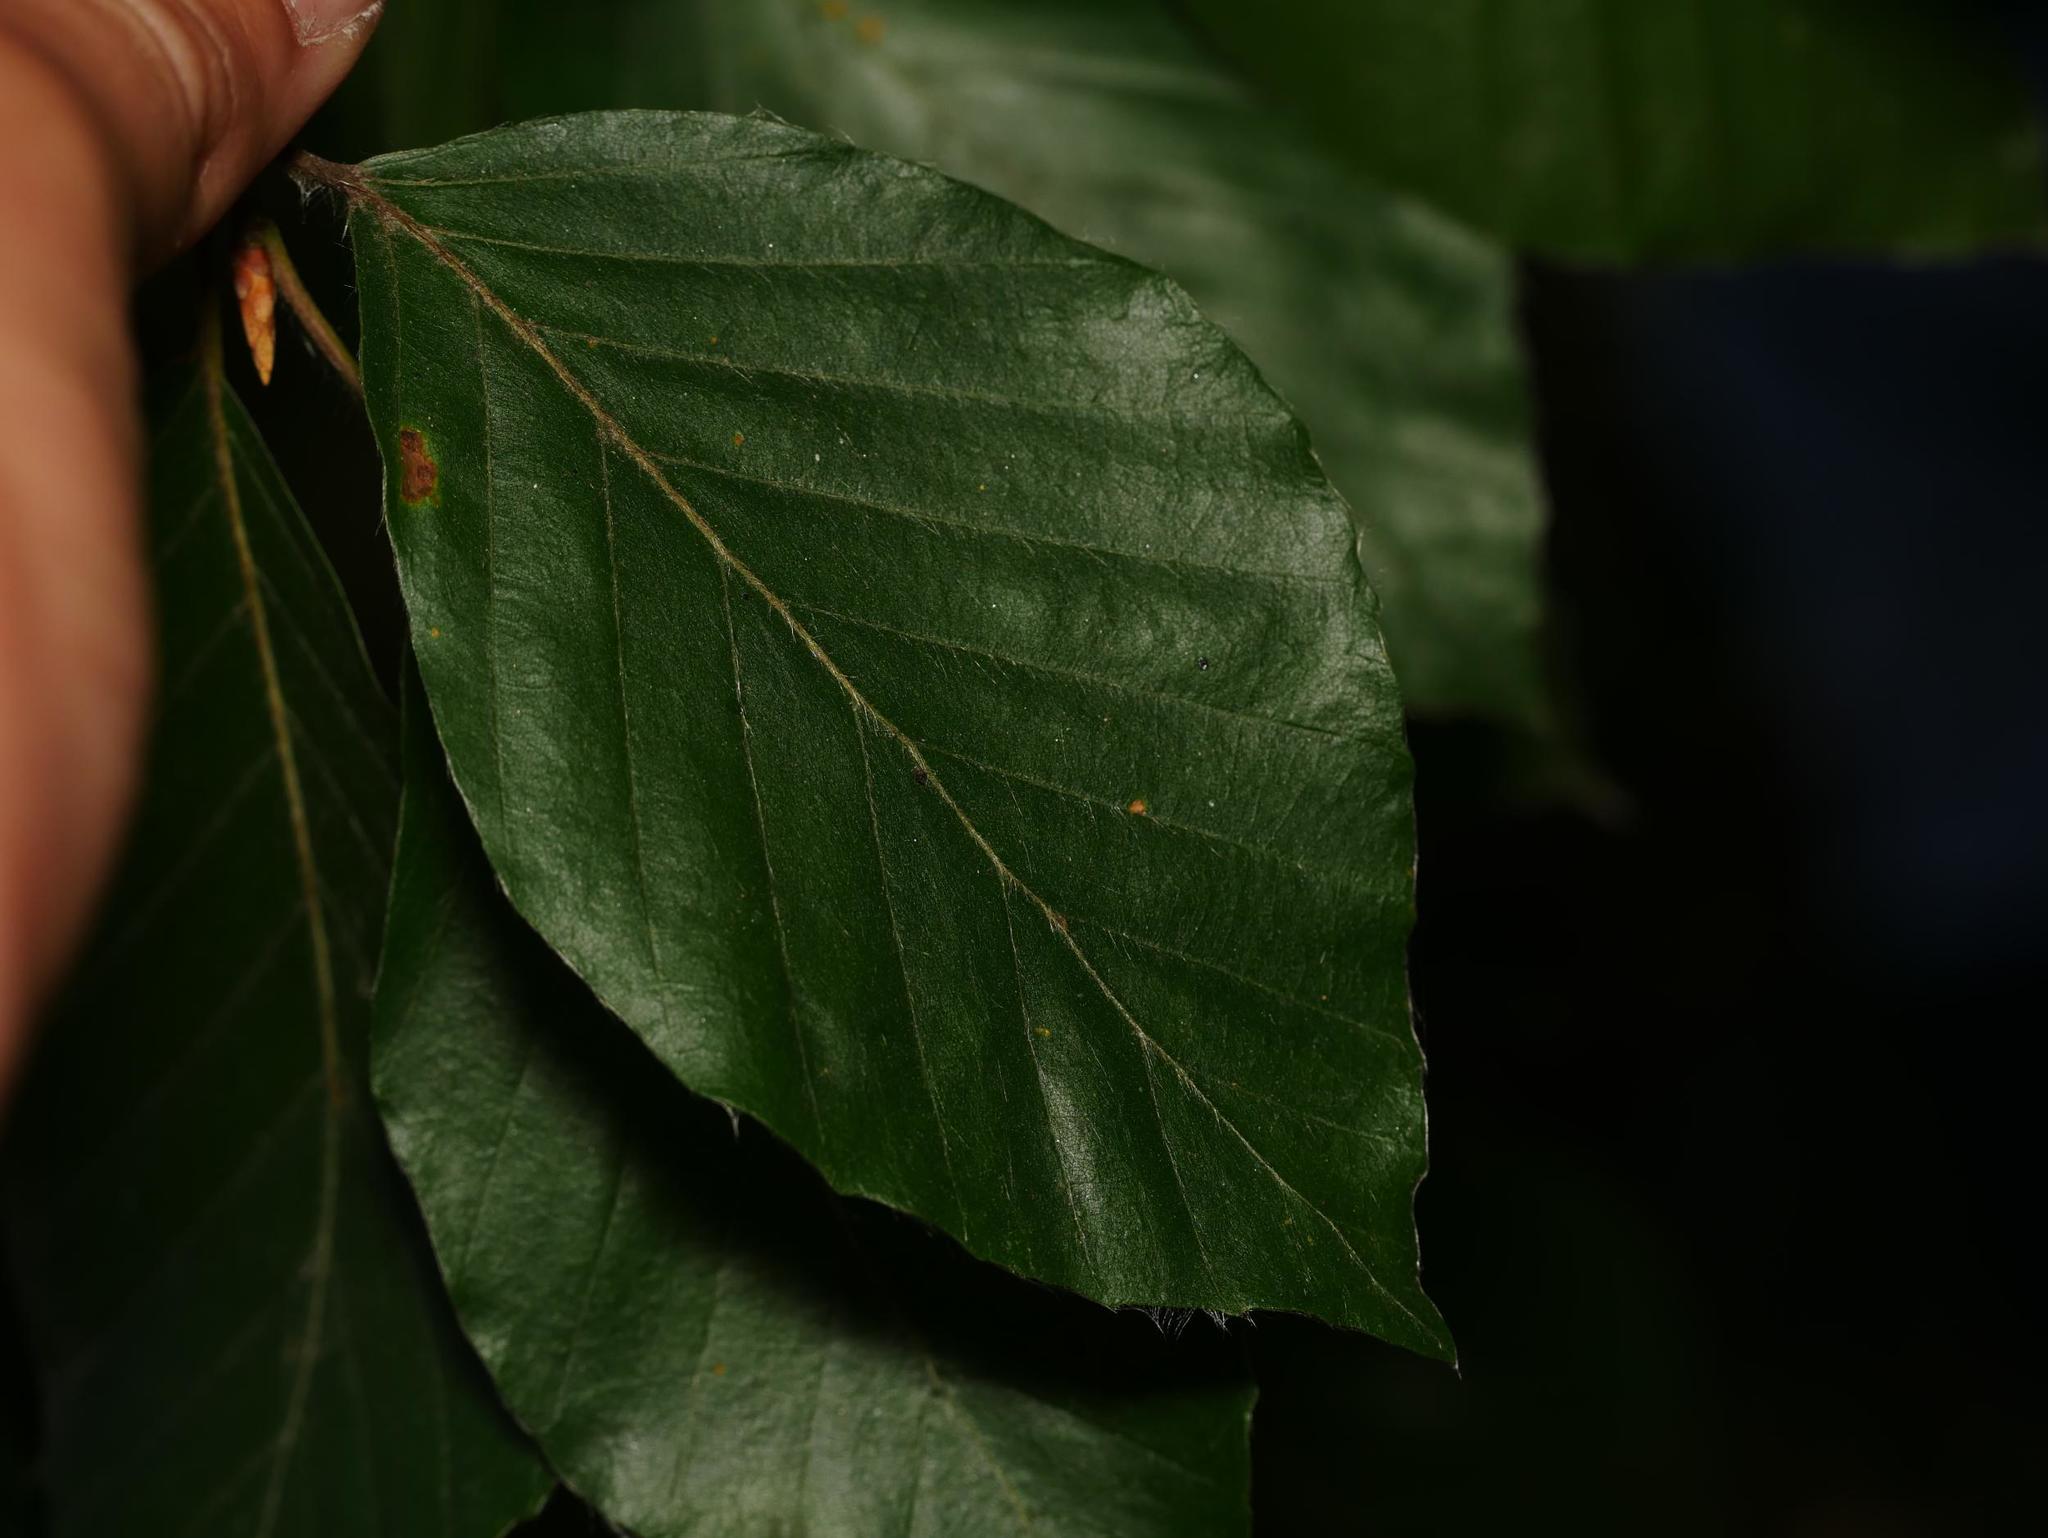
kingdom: Plantae
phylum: Tracheophyta
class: Magnoliopsida
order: Fagales
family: Fagaceae
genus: Fagus
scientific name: Fagus sylvatica
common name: Beech
